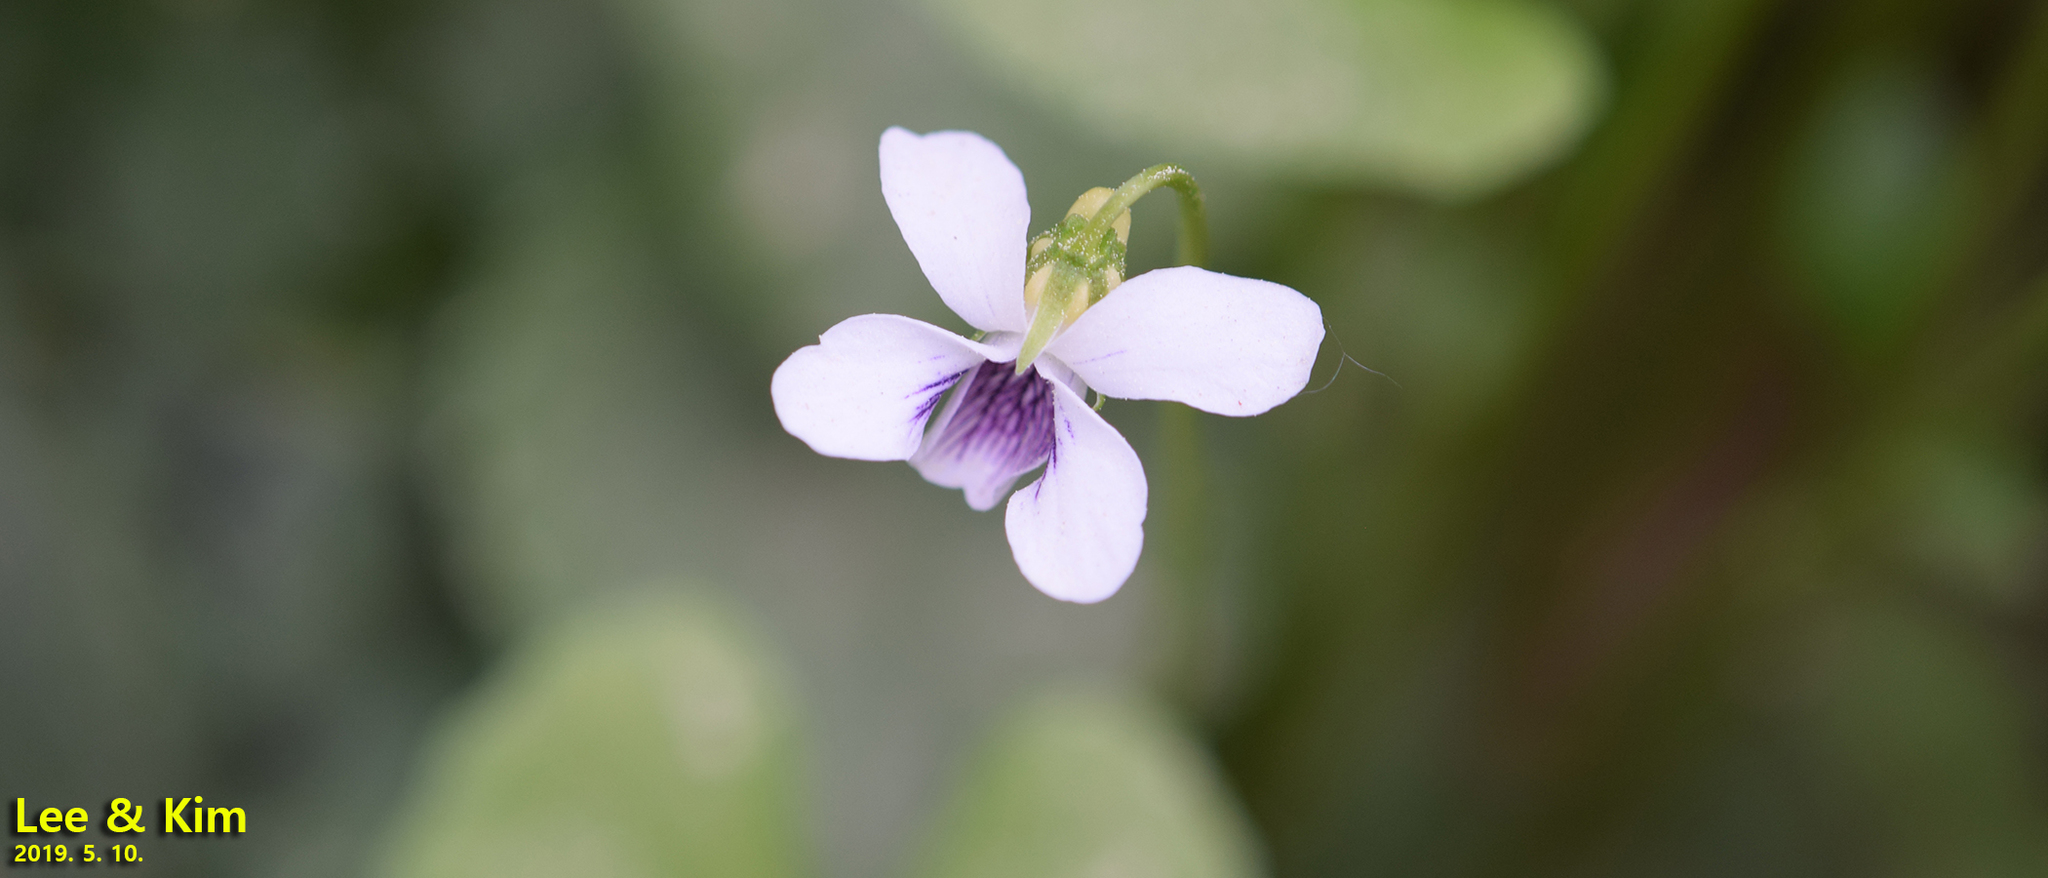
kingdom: Plantae
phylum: Tracheophyta
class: Magnoliopsida
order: Malpighiales
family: Violaceae
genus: Viola
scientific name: Viola
